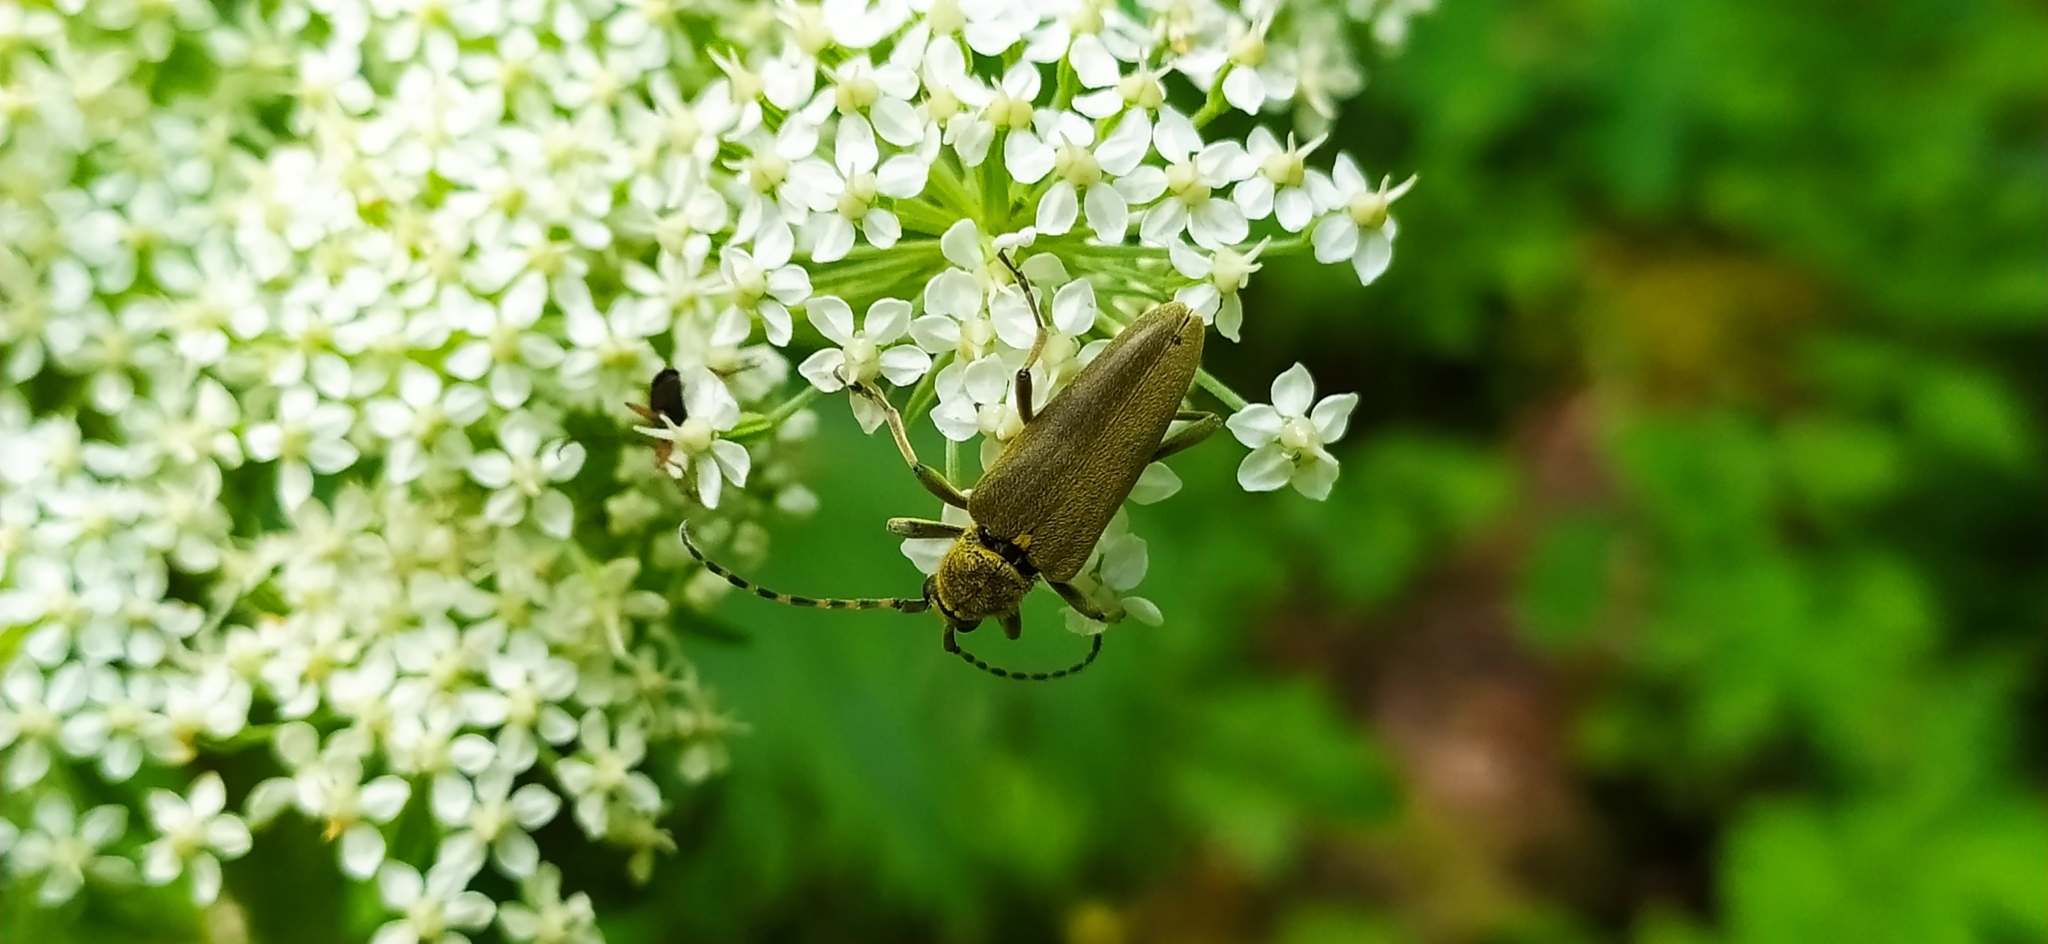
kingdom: Animalia
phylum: Arthropoda
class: Insecta
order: Coleoptera
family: Cerambycidae
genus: Lepturobosca
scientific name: Lepturobosca virens
